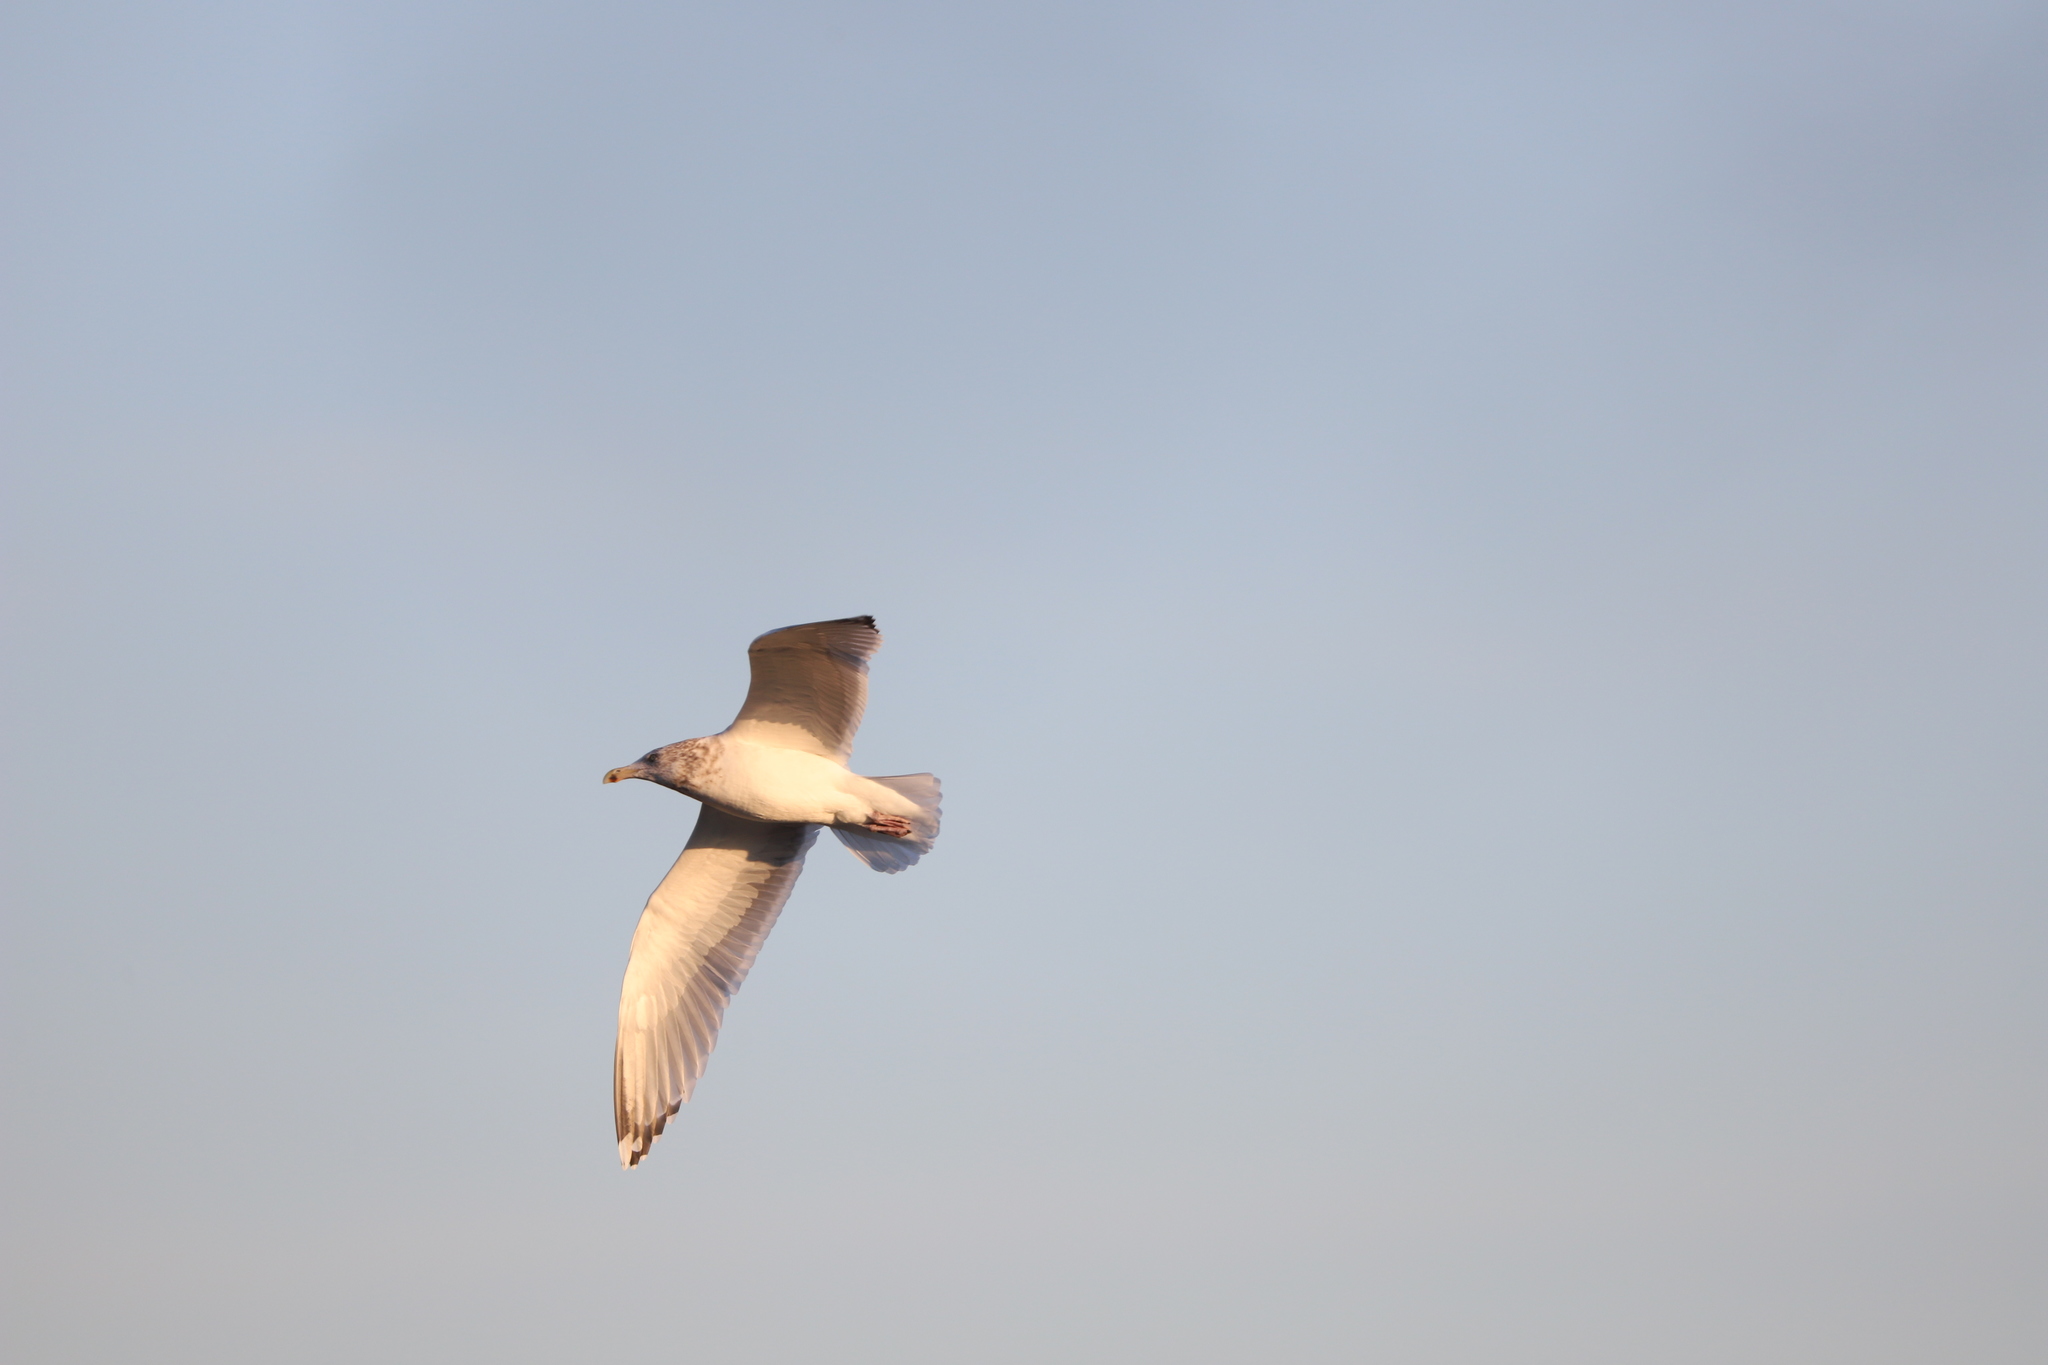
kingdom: Animalia
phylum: Chordata
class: Aves
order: Charadriiformes
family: Laridae
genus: Larus
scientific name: Larus argentatus
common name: Herring gull
